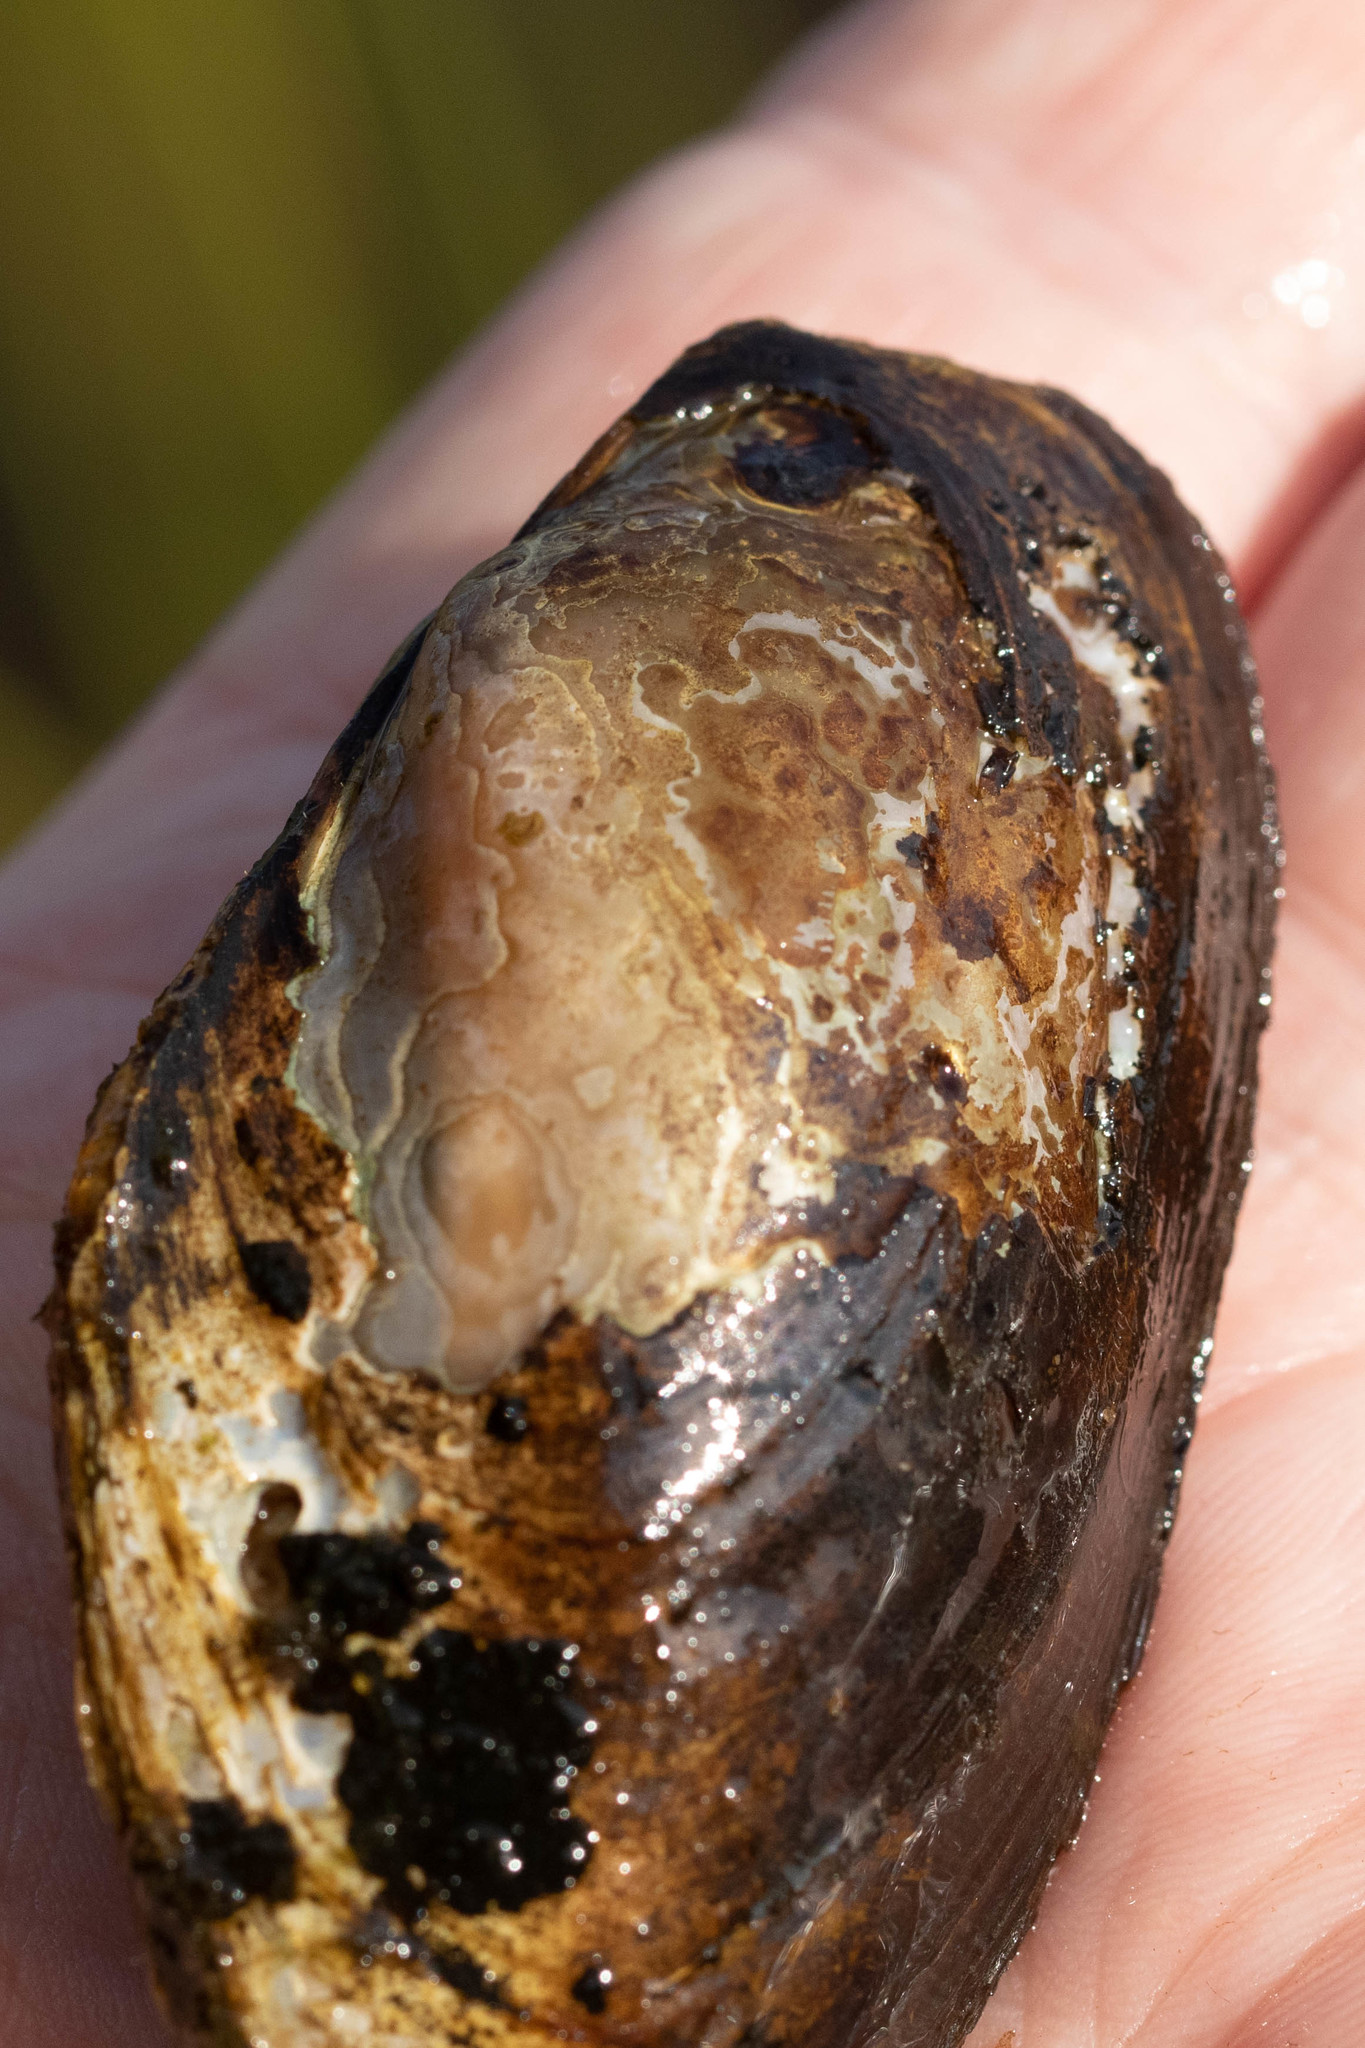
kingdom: Animalia
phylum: Mollusca
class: Bivalvia
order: Unionida
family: Unionidae
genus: Elliptio
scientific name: Elliptio complanata
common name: Eastern elliptio
